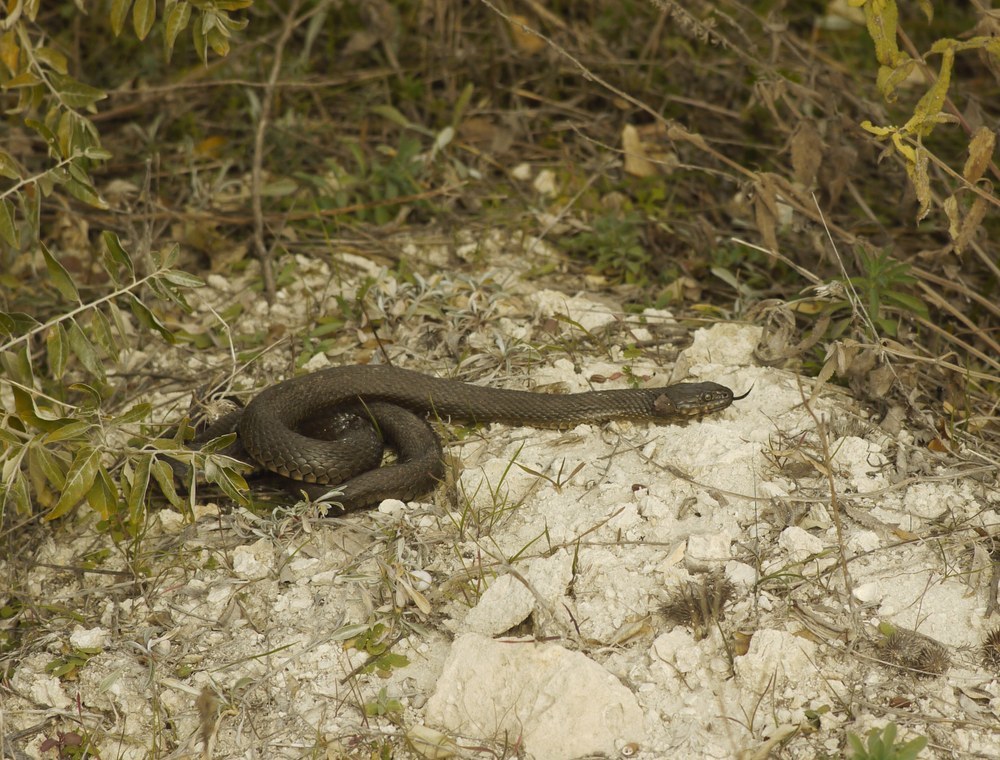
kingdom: Animalia
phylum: Chordata
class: Squamata
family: Colubridae
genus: Natrix
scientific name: Natrix tessellata
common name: Dice snake
